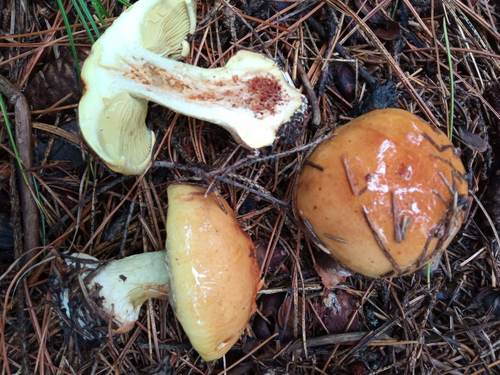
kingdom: Fungi
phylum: Basidiomycota
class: Agaricomycetes
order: Agaricales
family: Cortinariaceae
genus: Cortinarius
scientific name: Cortinarius
